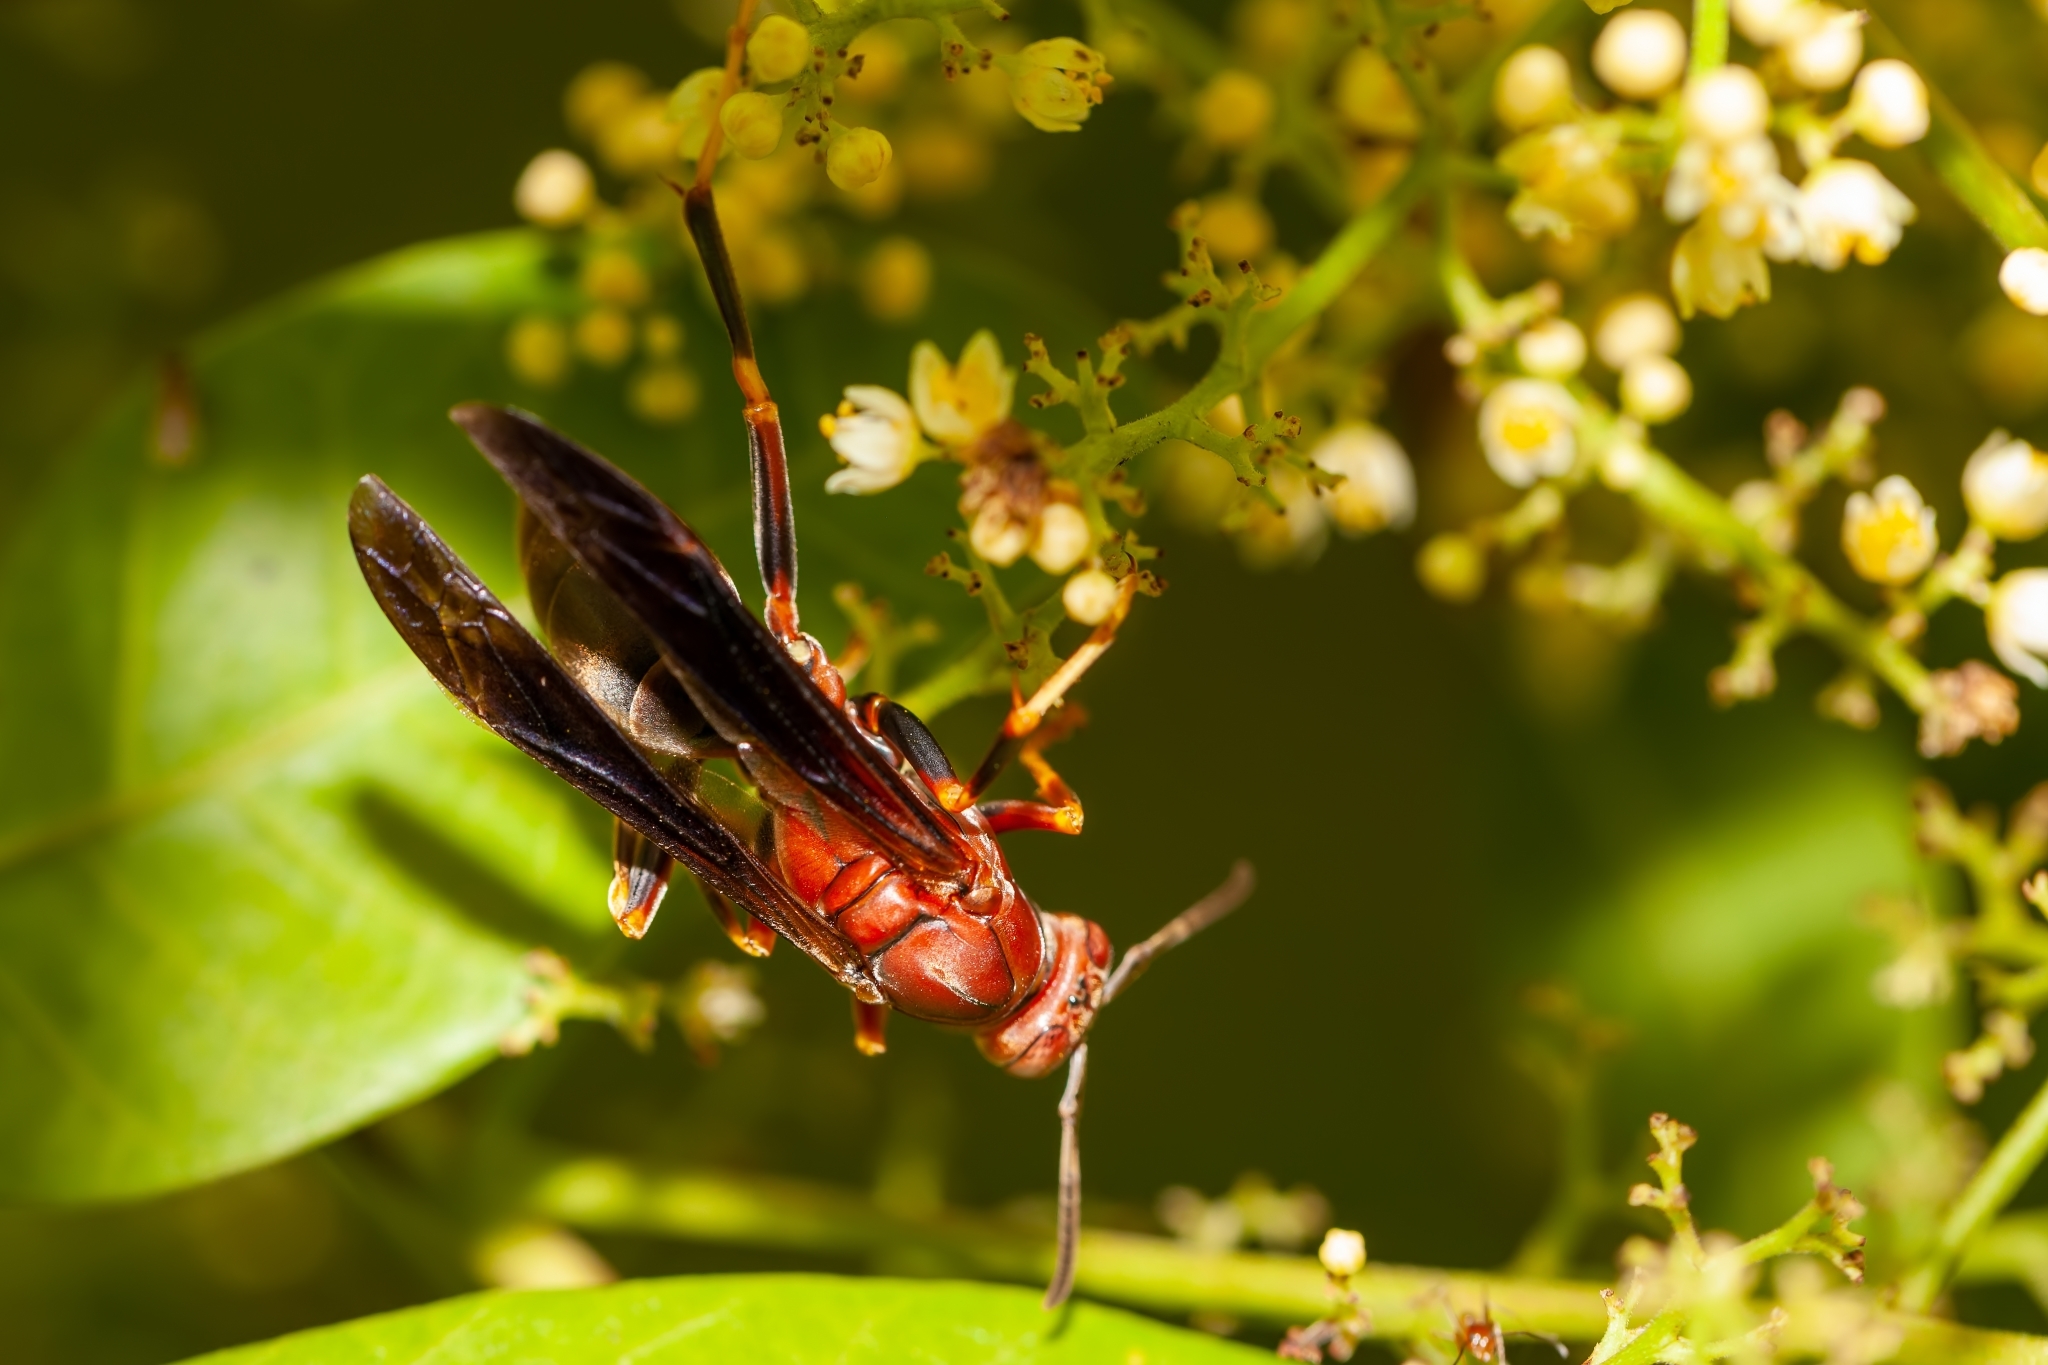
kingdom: Animalia
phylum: Arthropoda
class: Insecta
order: Hymenoptera
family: Eumenidae
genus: Polistes
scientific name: Polistes metricus
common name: Metric paper wasp
